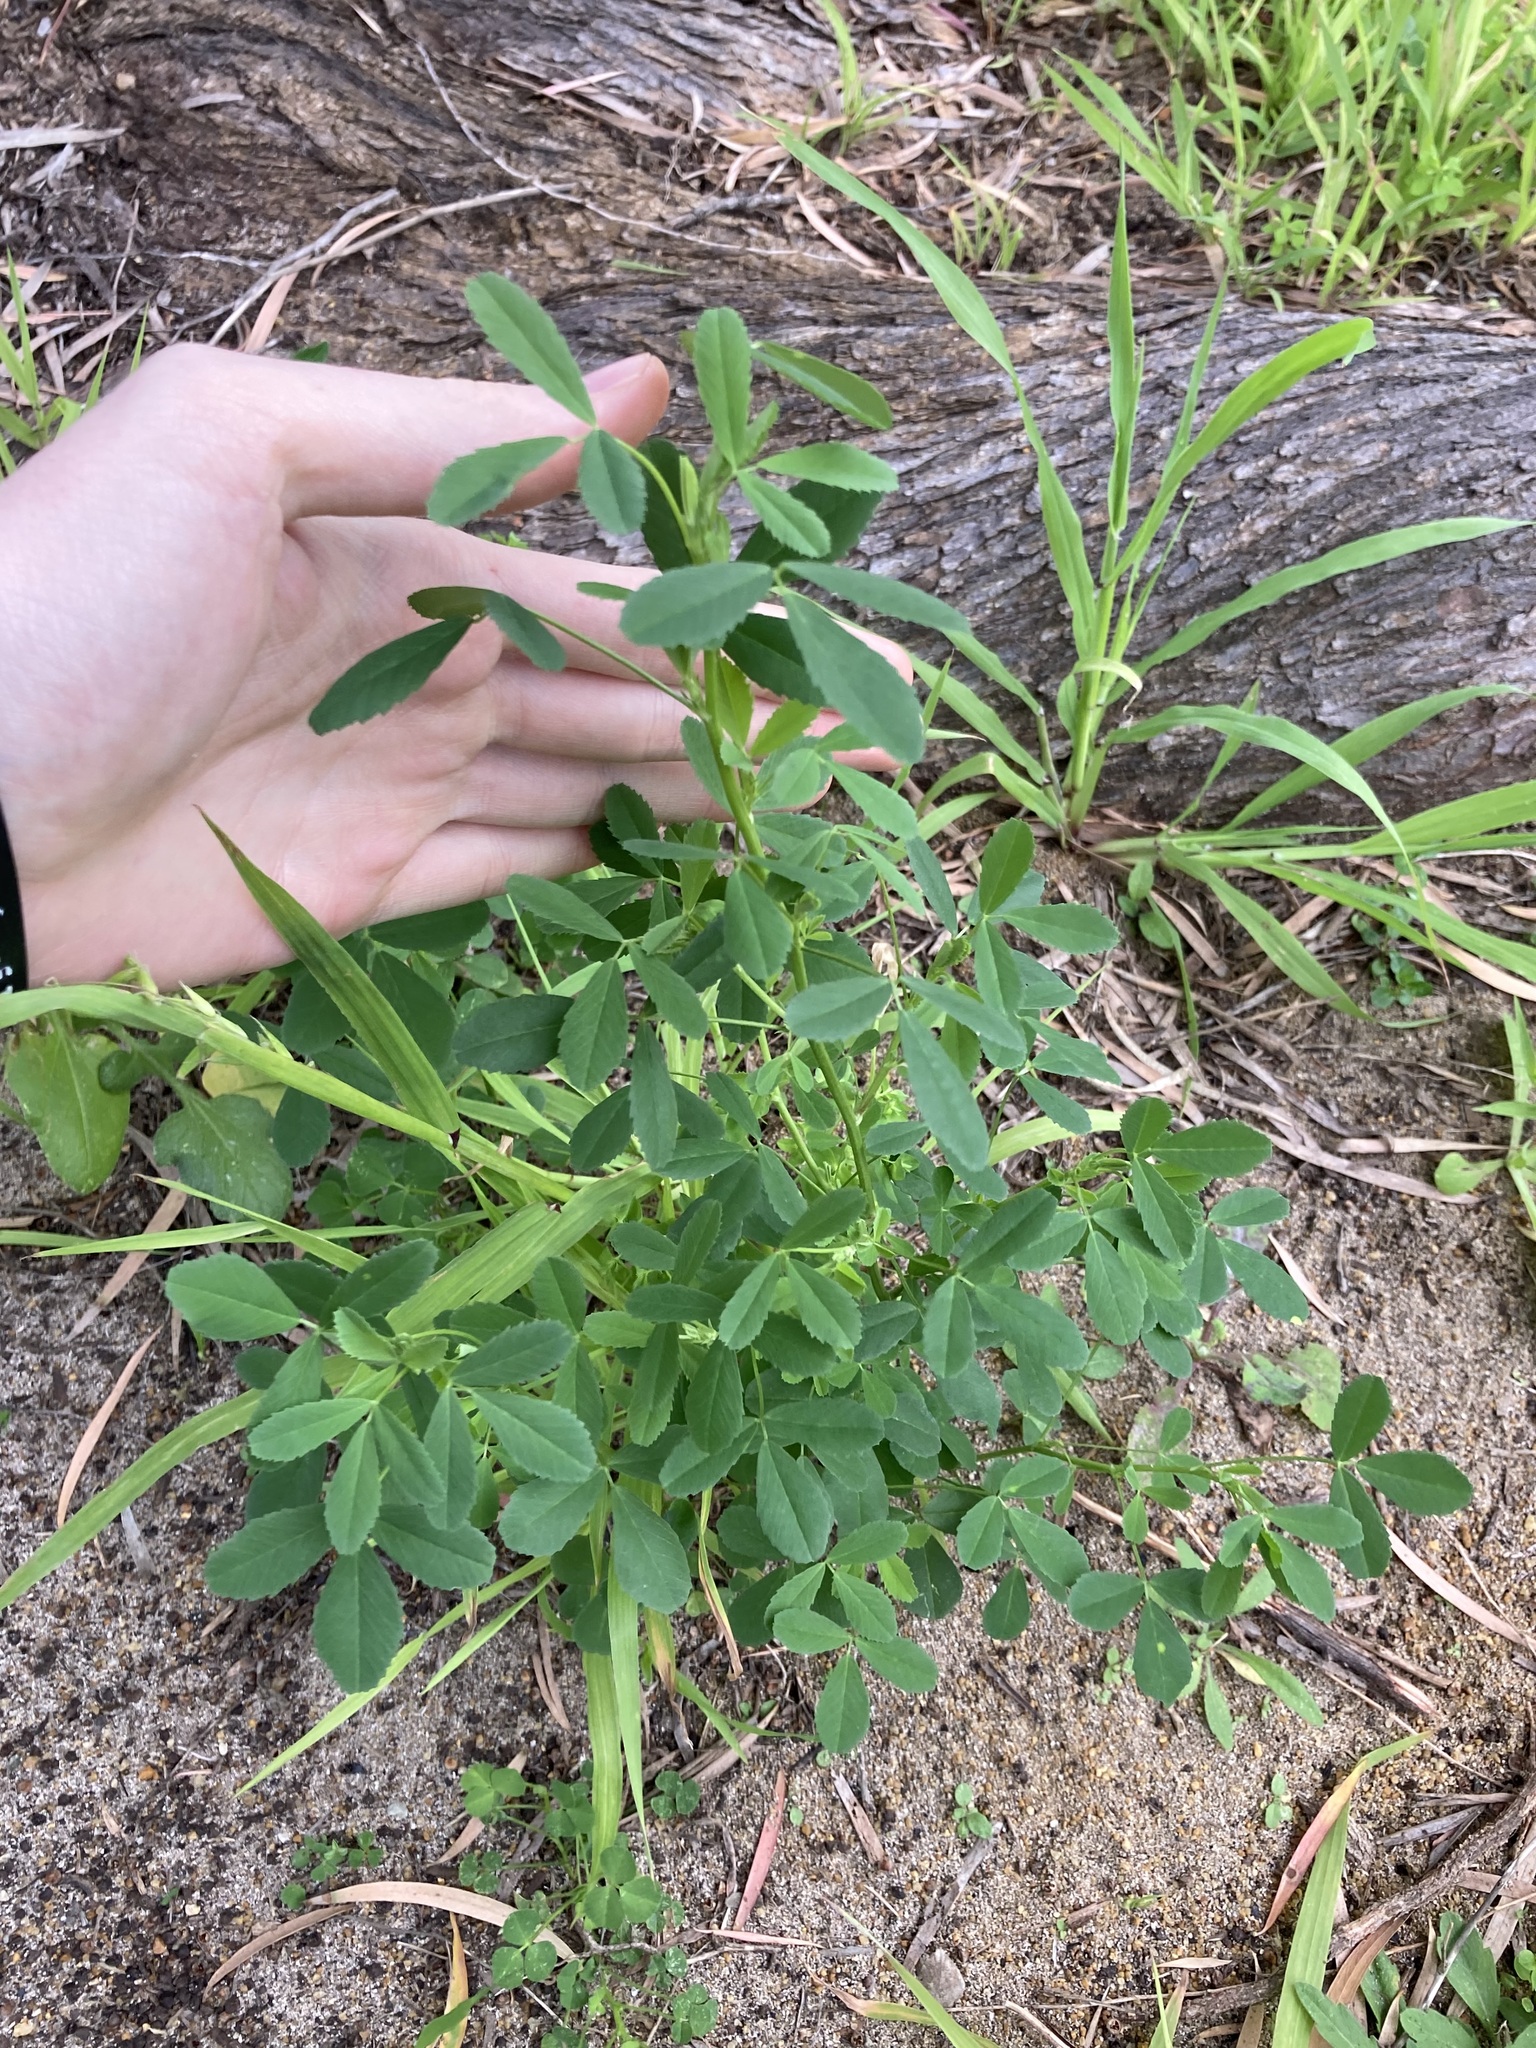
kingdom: Plantae
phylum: Tracheophyta
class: Magnoliopsida
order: Fabales
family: Fabaceae
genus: Melilotus
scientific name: Melilotus indicus
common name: Small melilot
